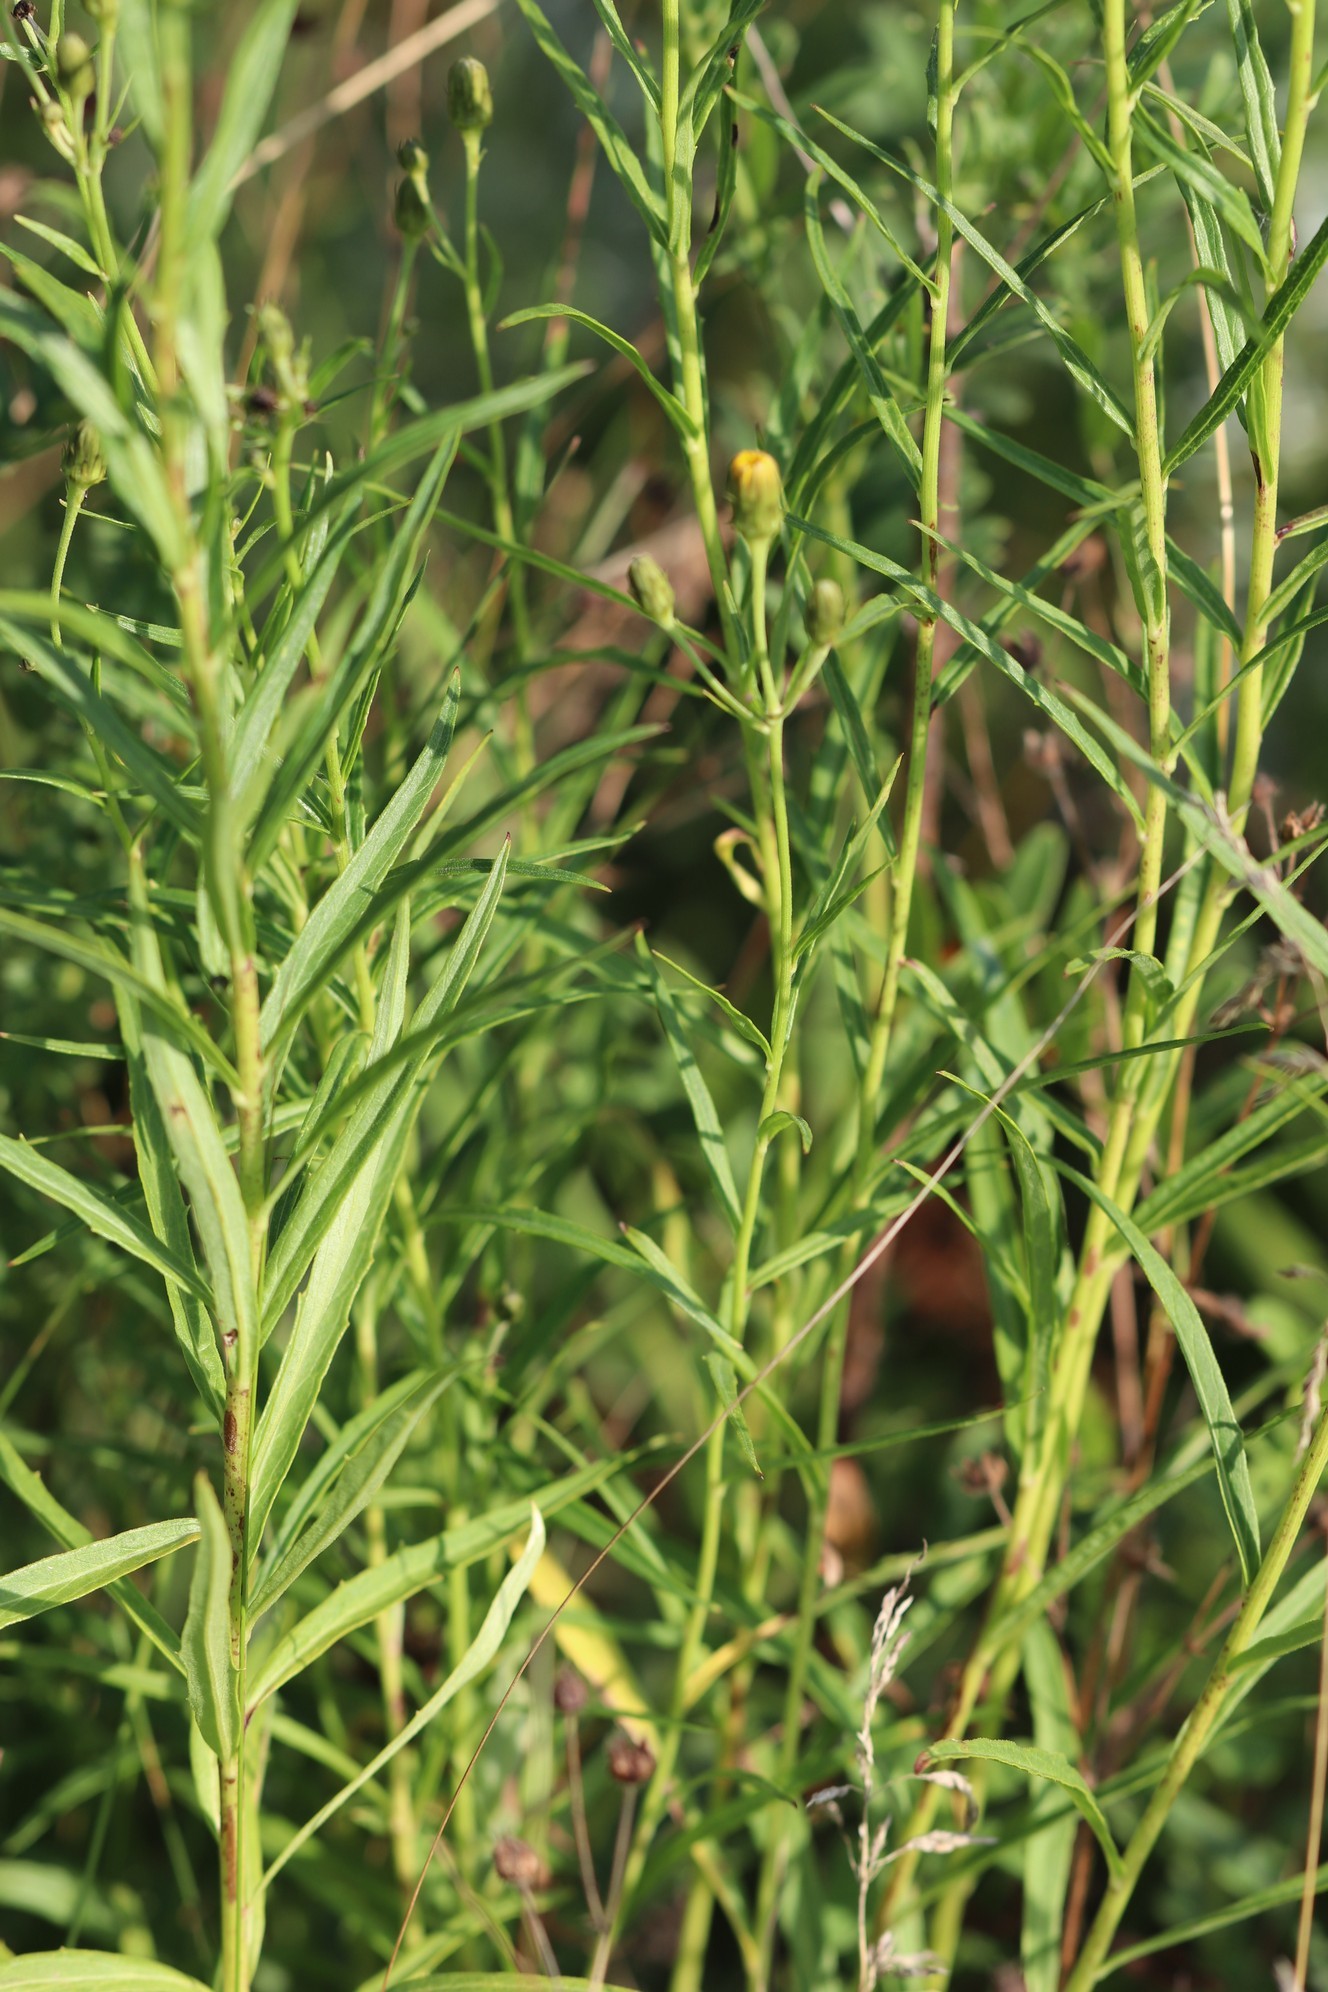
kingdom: Plantae
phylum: Tracheophyta
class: Magnoliopsida
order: Asterales
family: Asteraceae
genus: Hieracium
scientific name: Hieracium umbellatum
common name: Northern hawkweed
